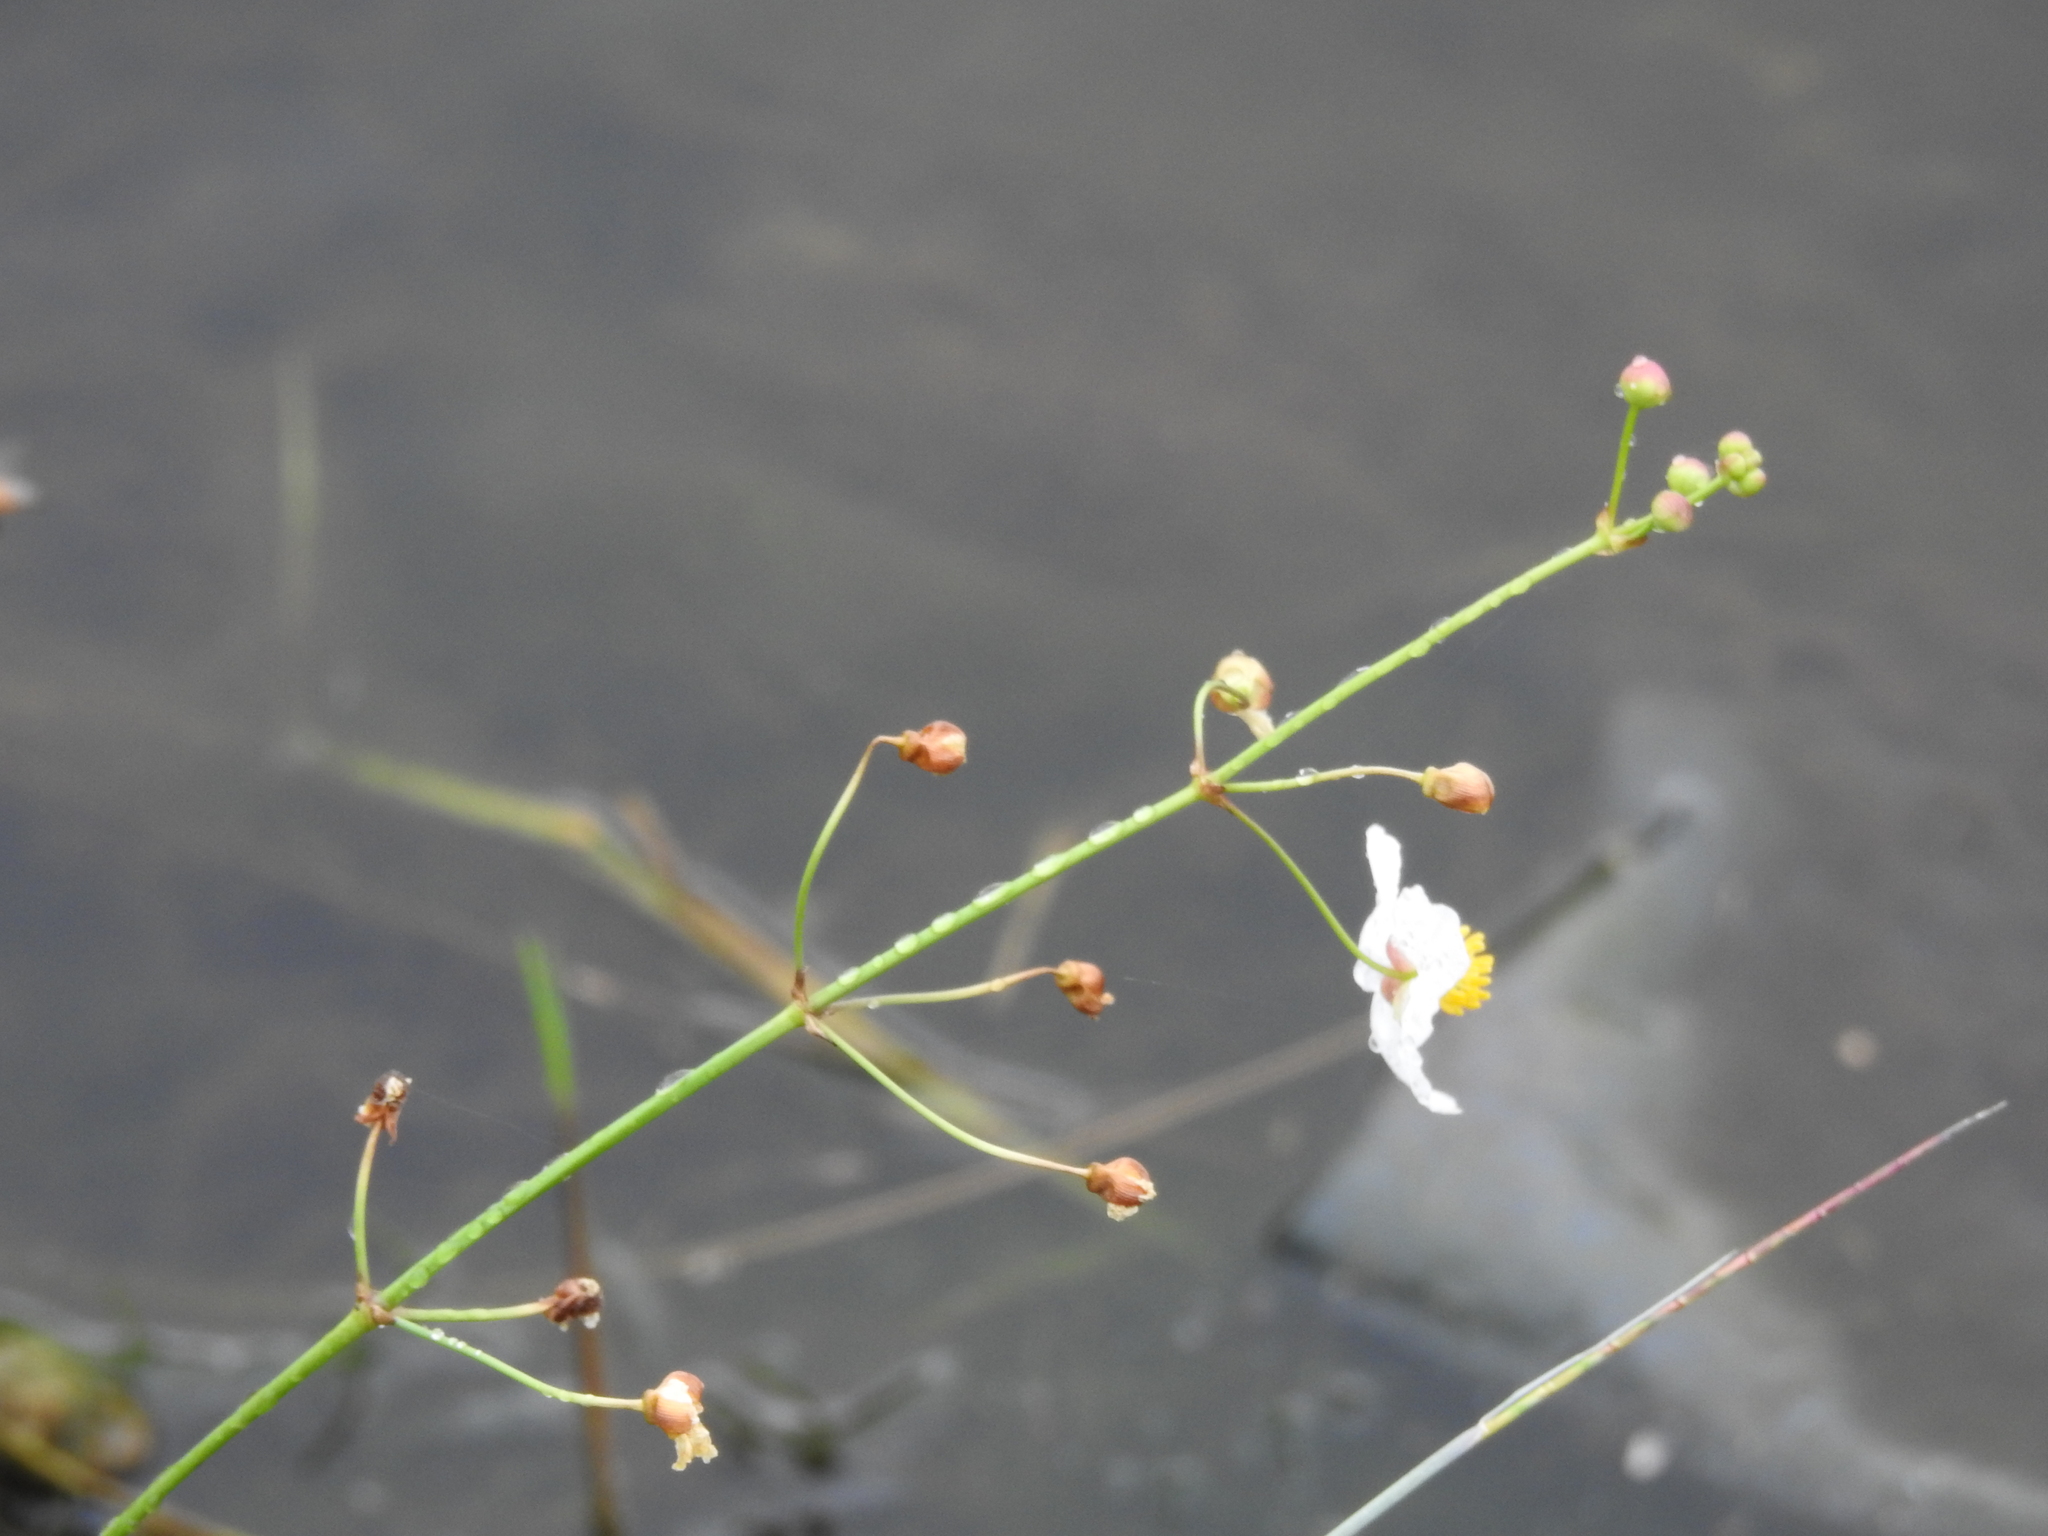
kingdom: Plantae
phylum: Tracheophyta
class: Liliopsida
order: Alismatales
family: Alismataceae
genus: Sagittaria
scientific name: Sagittaria lancifolia
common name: Lance-leaf arrowhead
